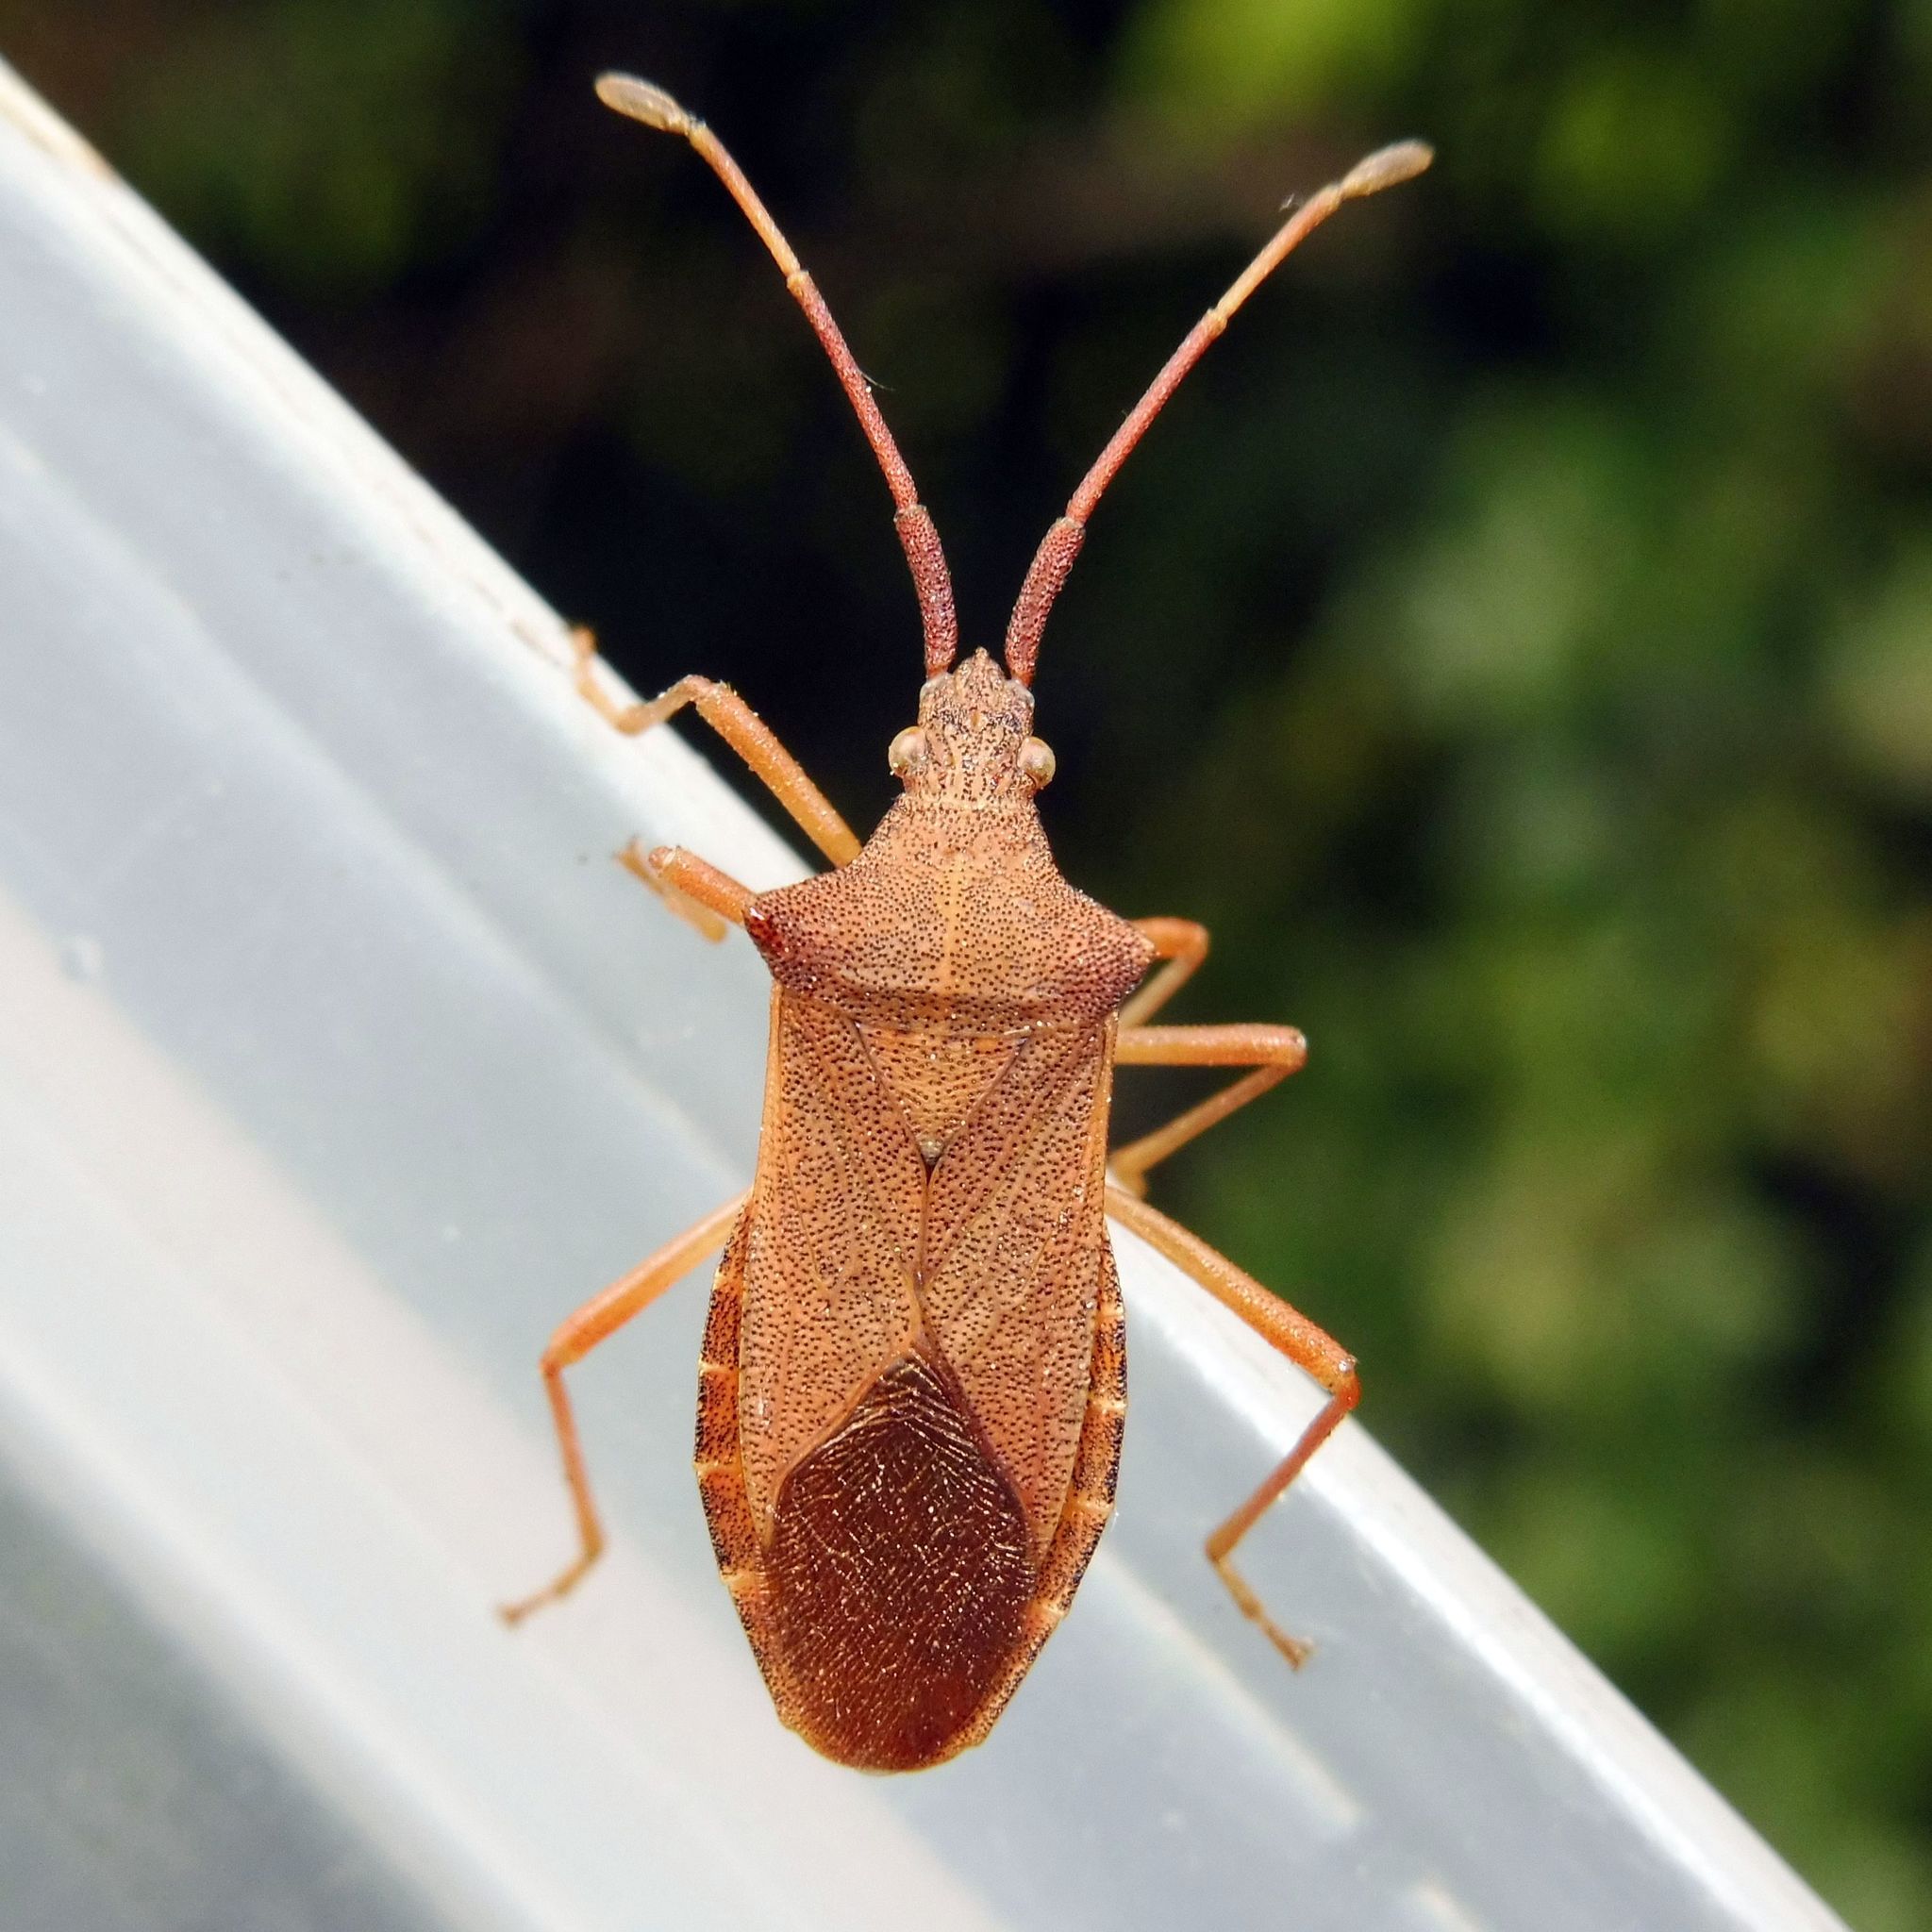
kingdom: Animalia
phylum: Arthropoda
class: Insecta
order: Hemiptera
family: Coreidae
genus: Gonocerus
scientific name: Gonocerus acuteangulatus
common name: Box bug
